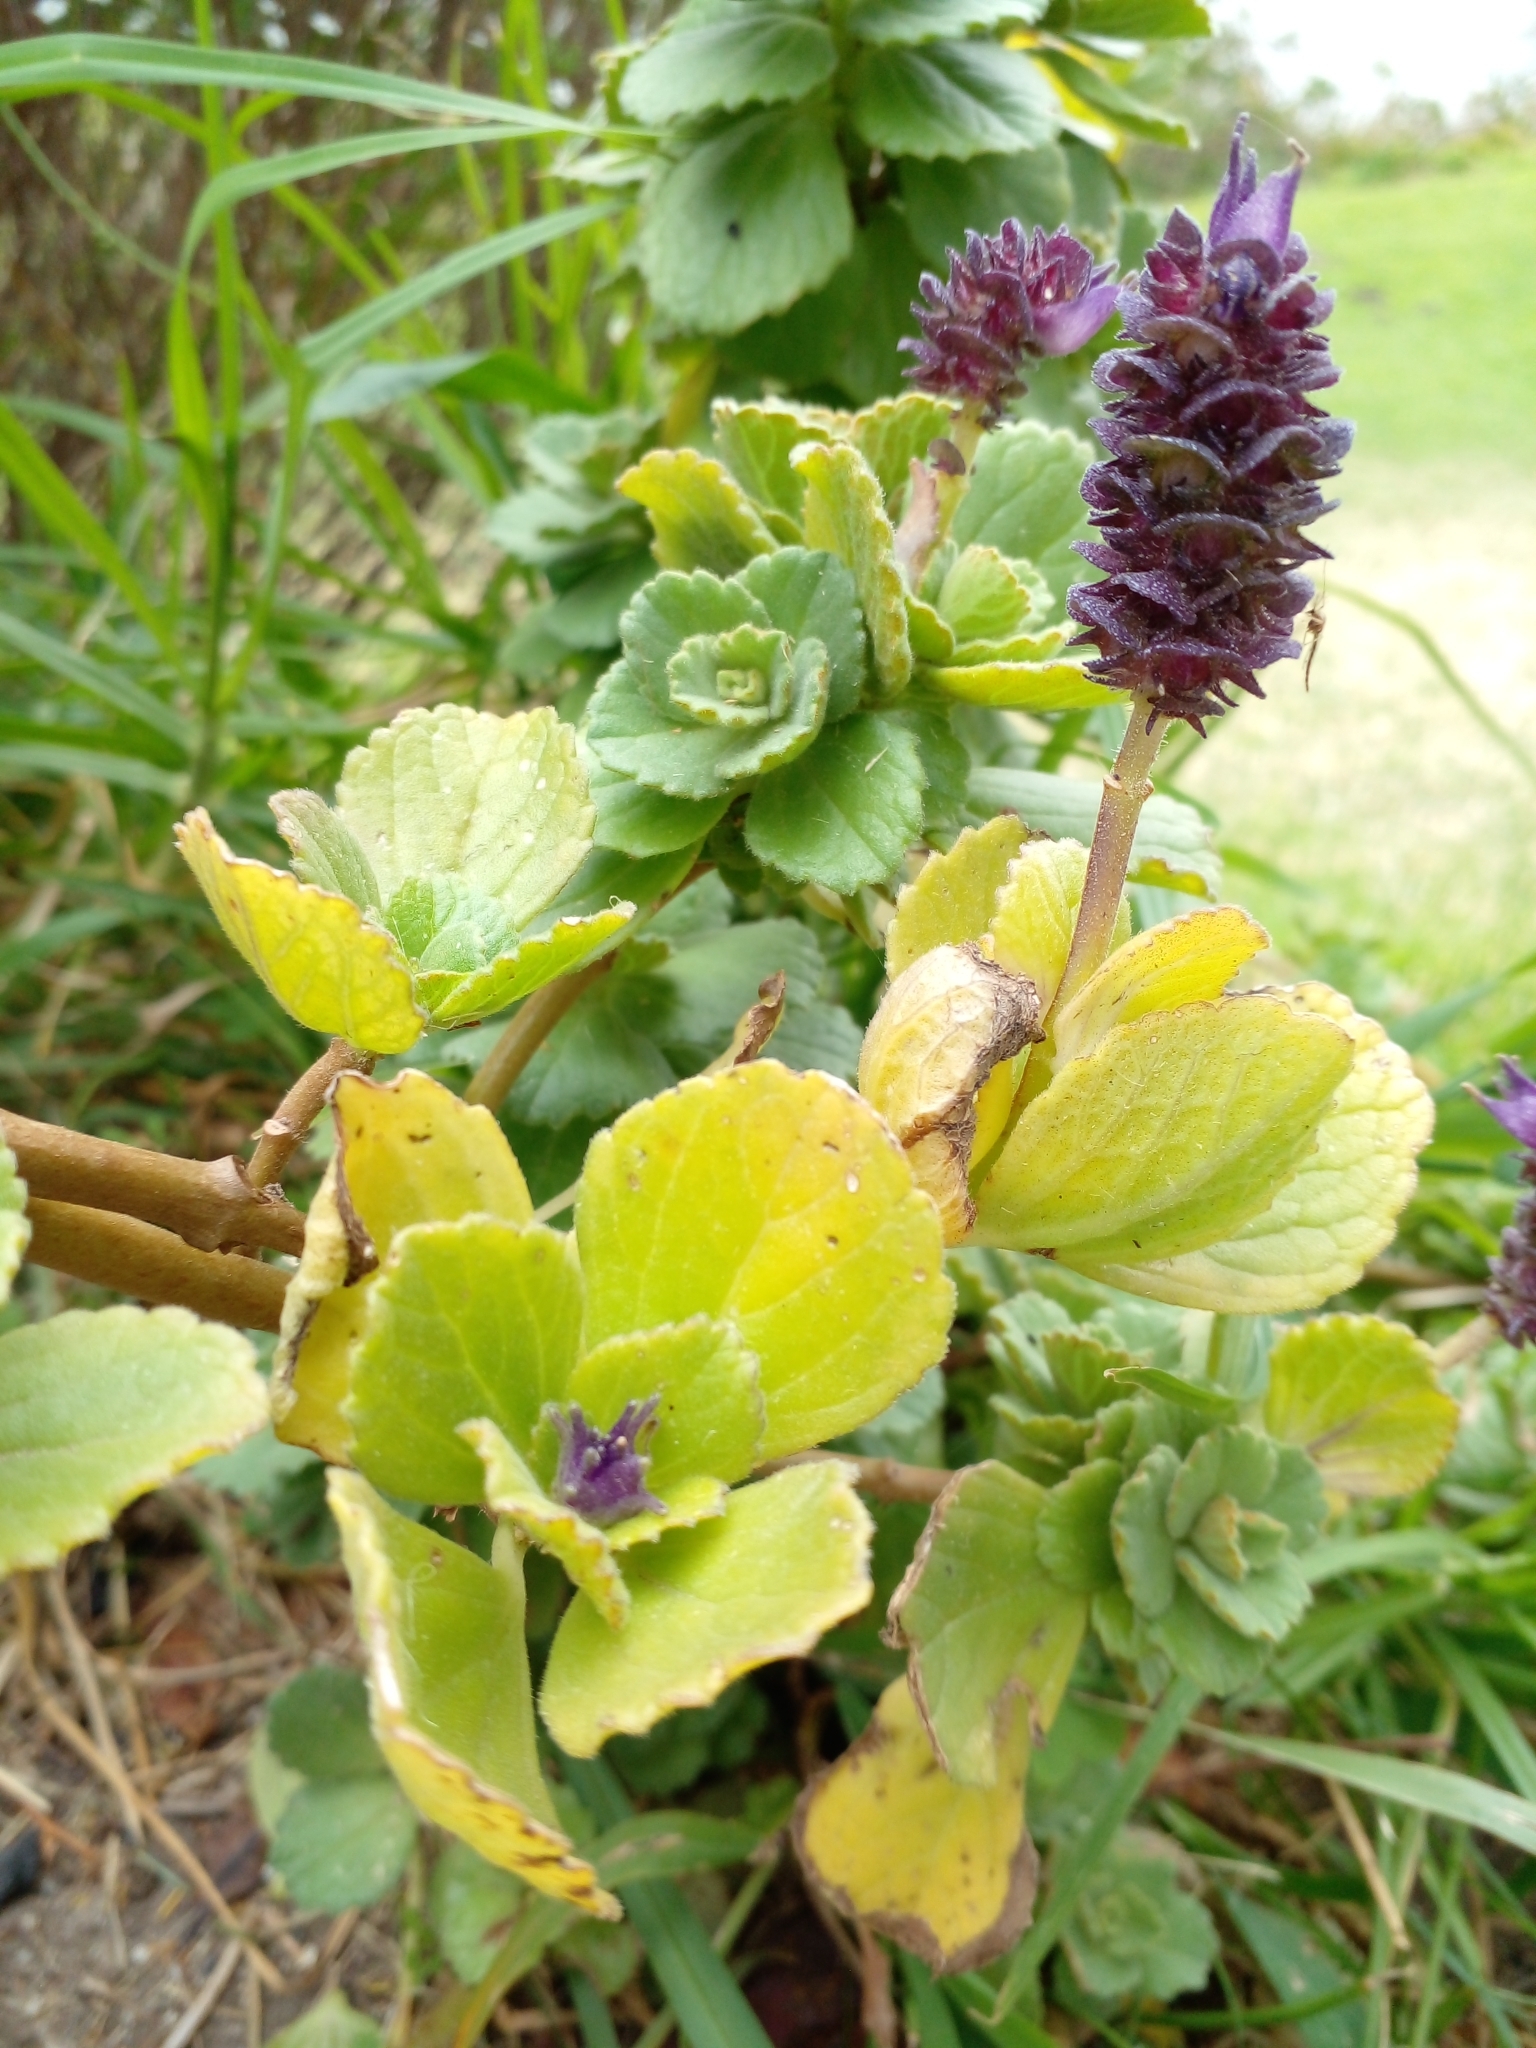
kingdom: Plantae
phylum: Tracheophyta
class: Magnoliopsida
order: Lamiales
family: Lamiaceae
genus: Coleus
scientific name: Coleus neochilus
